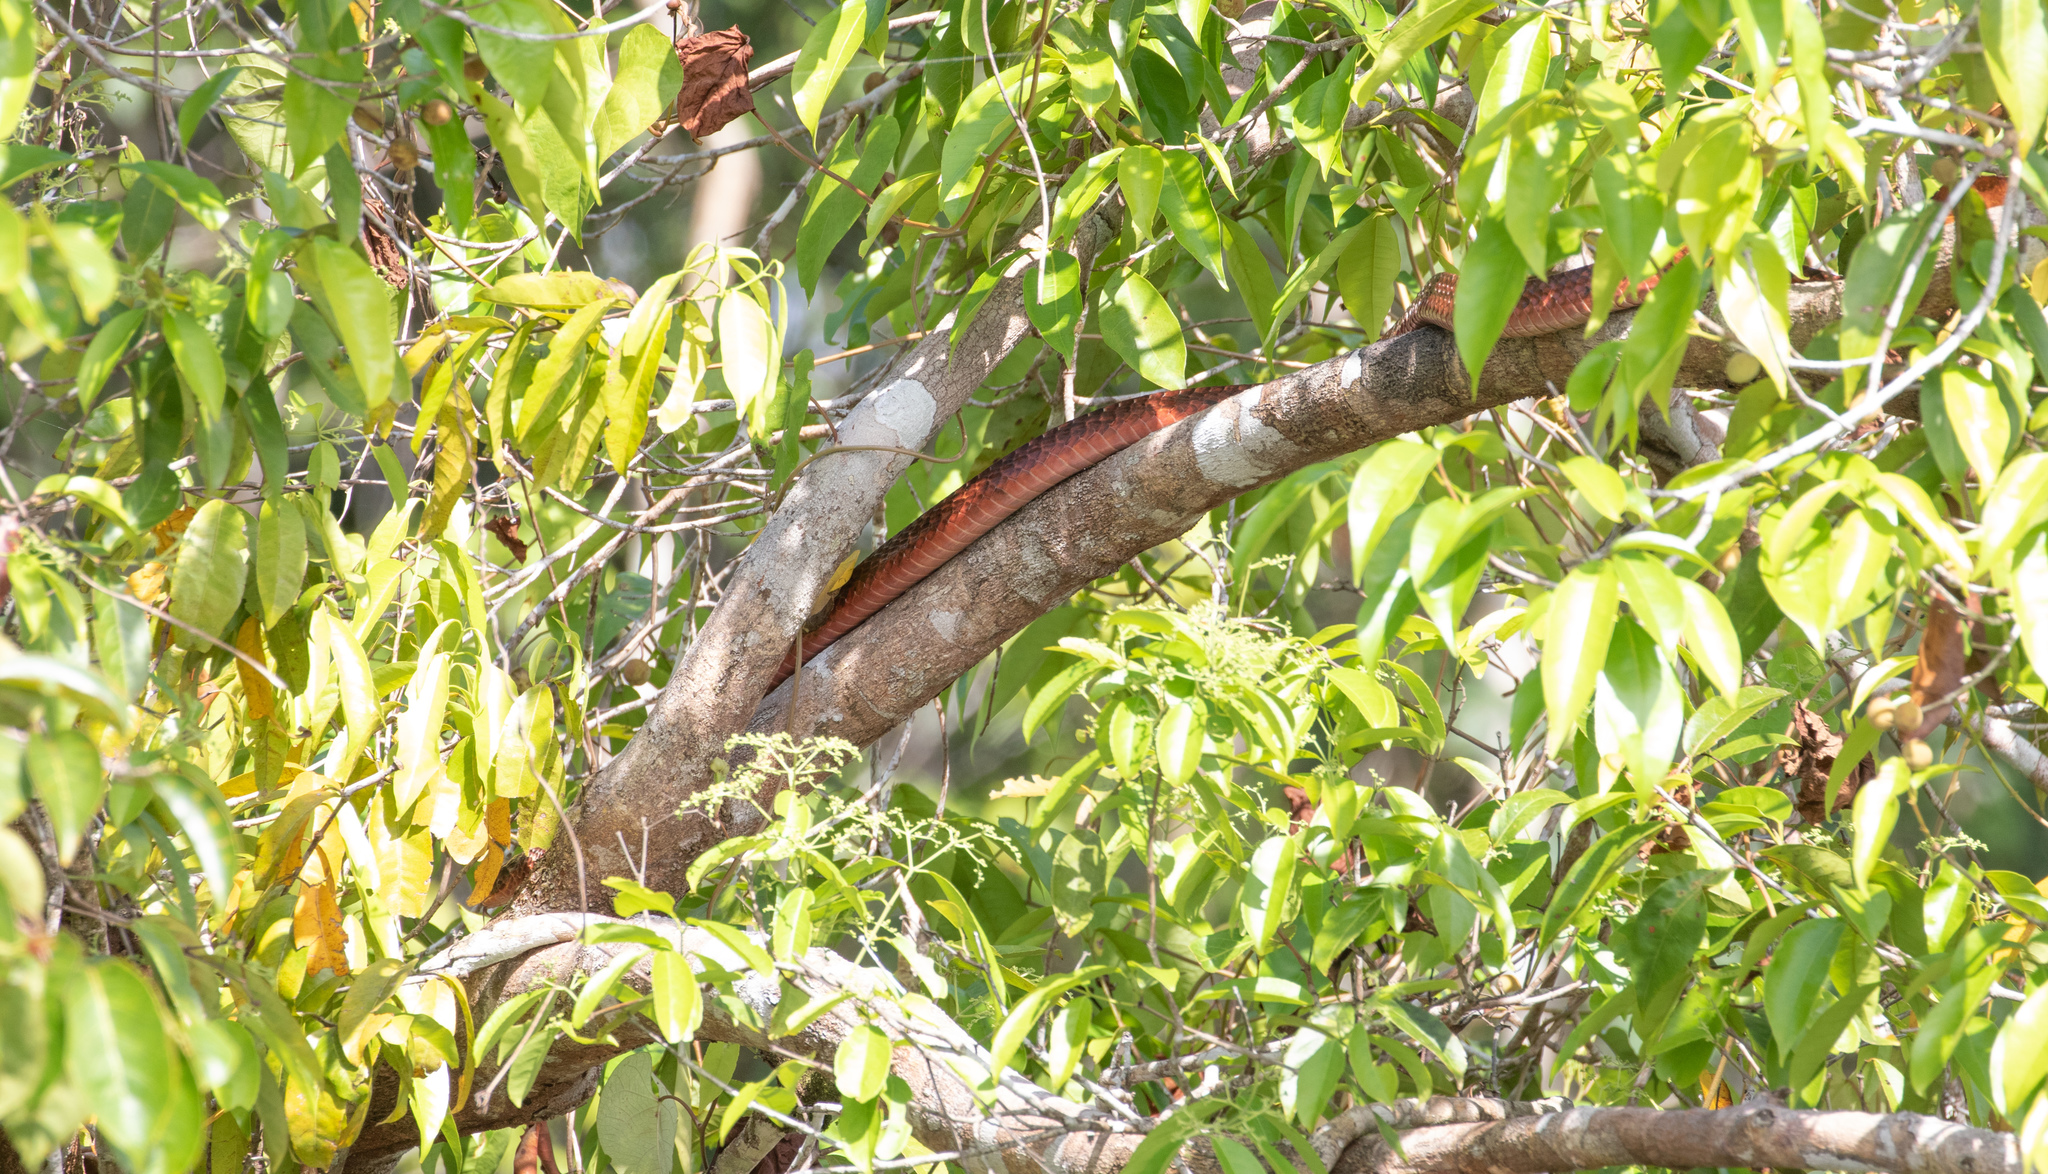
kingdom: Animalia
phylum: Chordata
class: Squamata
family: Colubridae
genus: Chironius
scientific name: Chironius scurrulus
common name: Wagler's sipo
